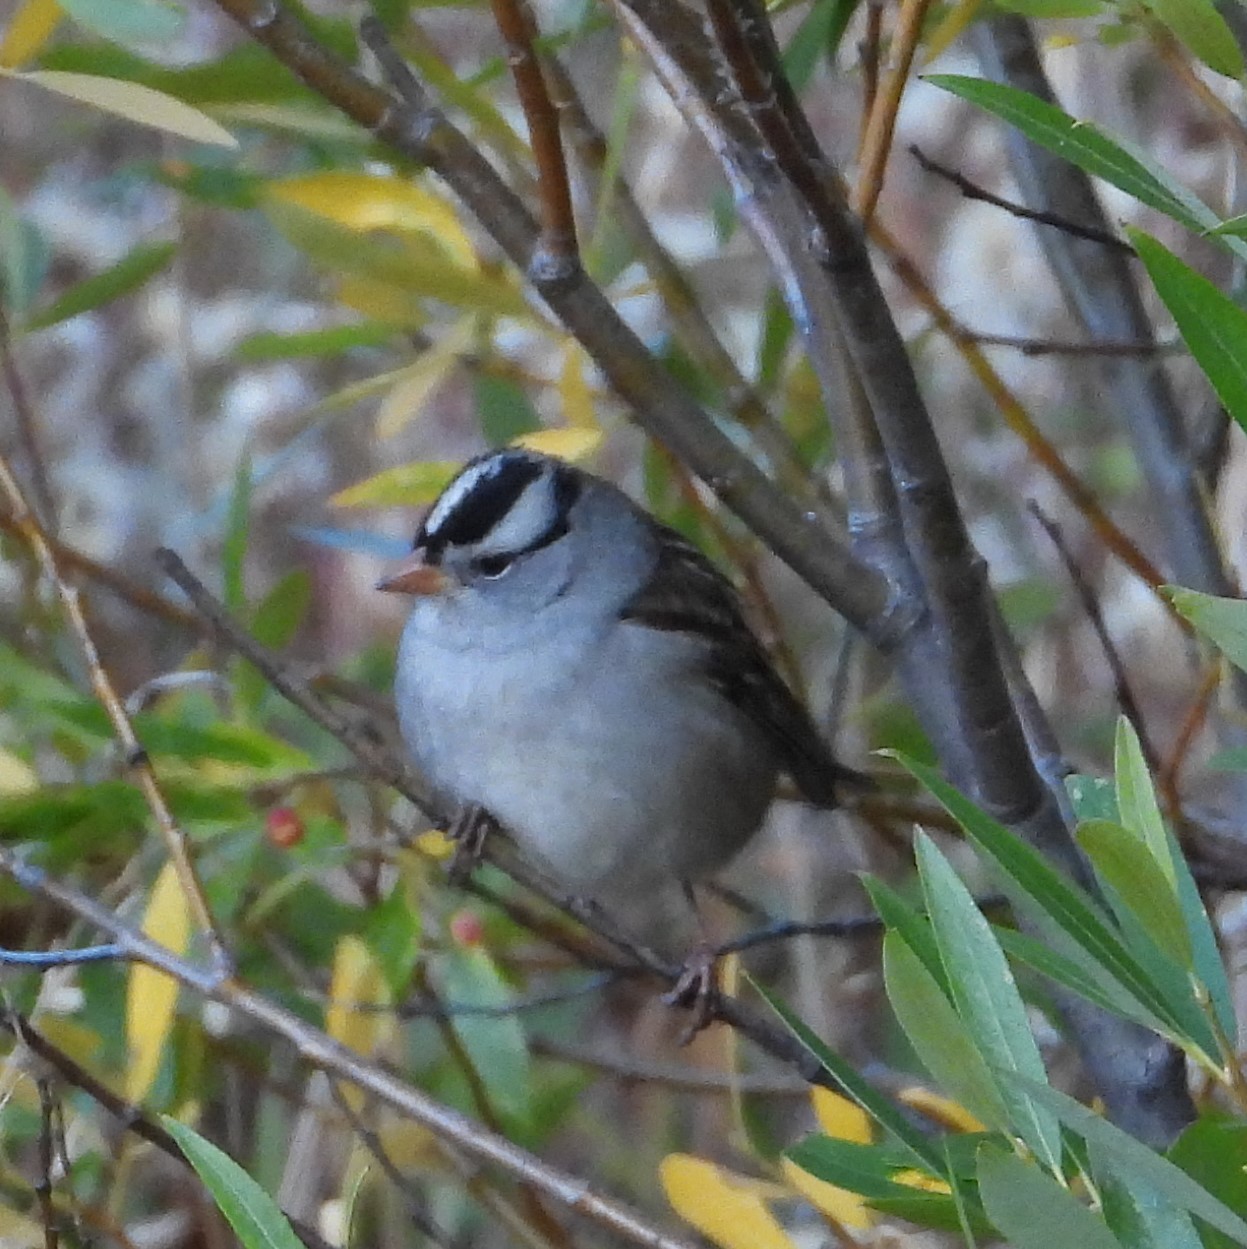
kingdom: Animalia
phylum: Chordata
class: Aves
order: Passeriformes
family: Passerellidae
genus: Zonotrichia
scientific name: Zonotrichia leucophrys
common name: White-crowned sparrow
